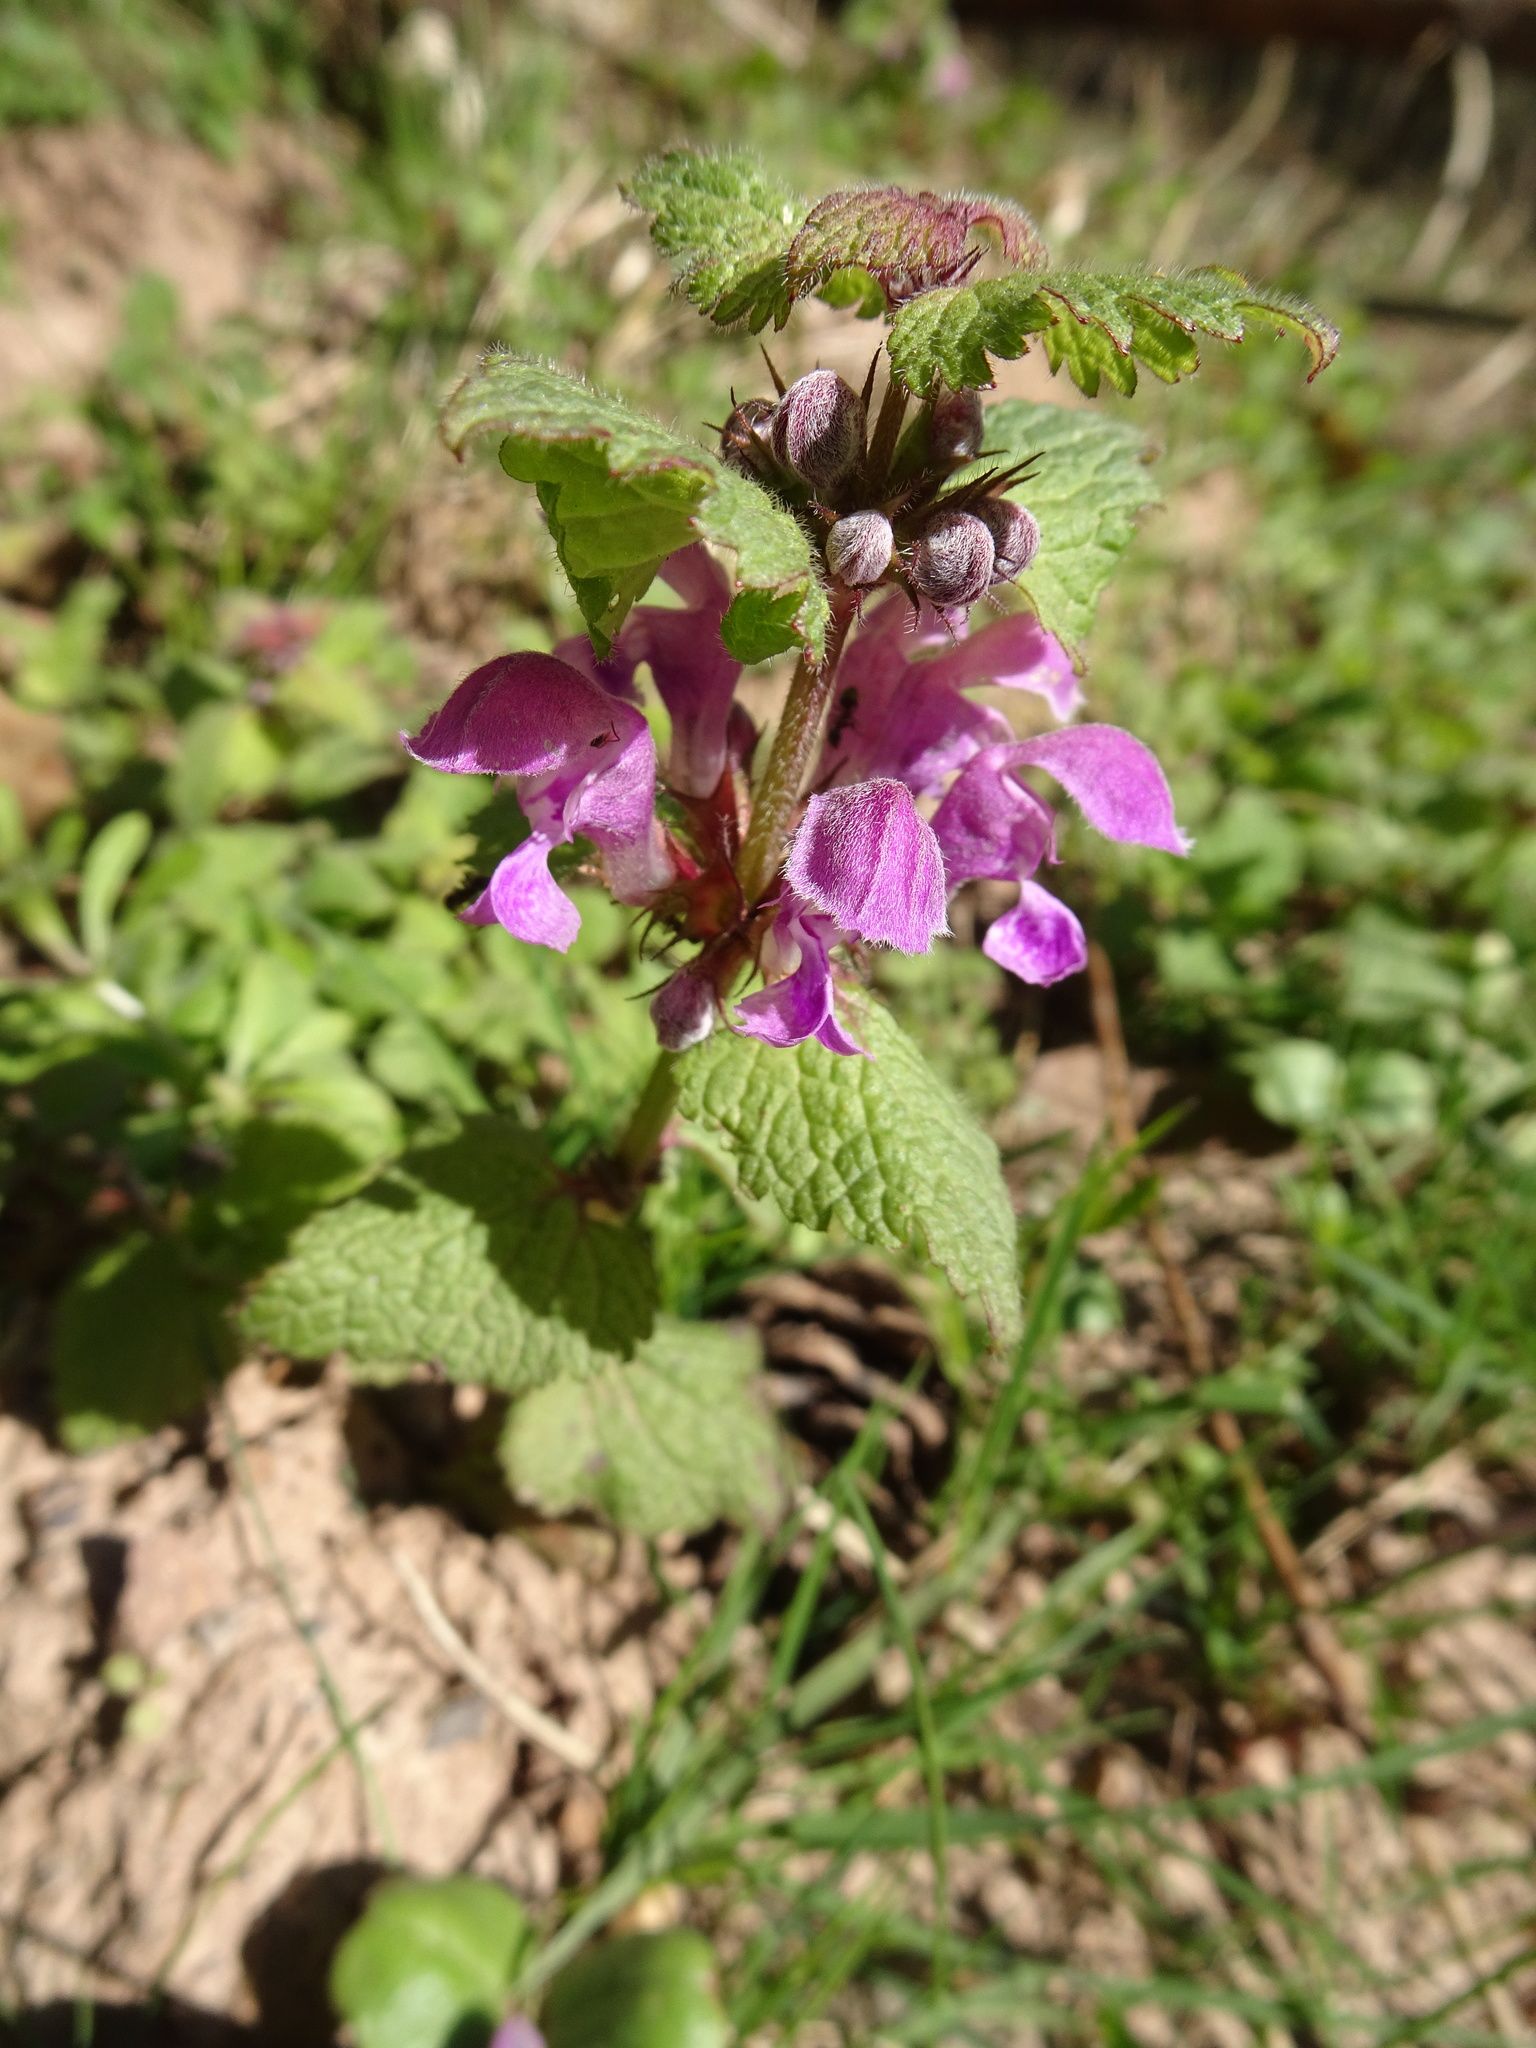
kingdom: Plantae
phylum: Tracheophyta
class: Magnoliopsida
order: Lamiales
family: Lamiaceae
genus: Lamium
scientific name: Lamium maculatum
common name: Spotted dead-nettle
